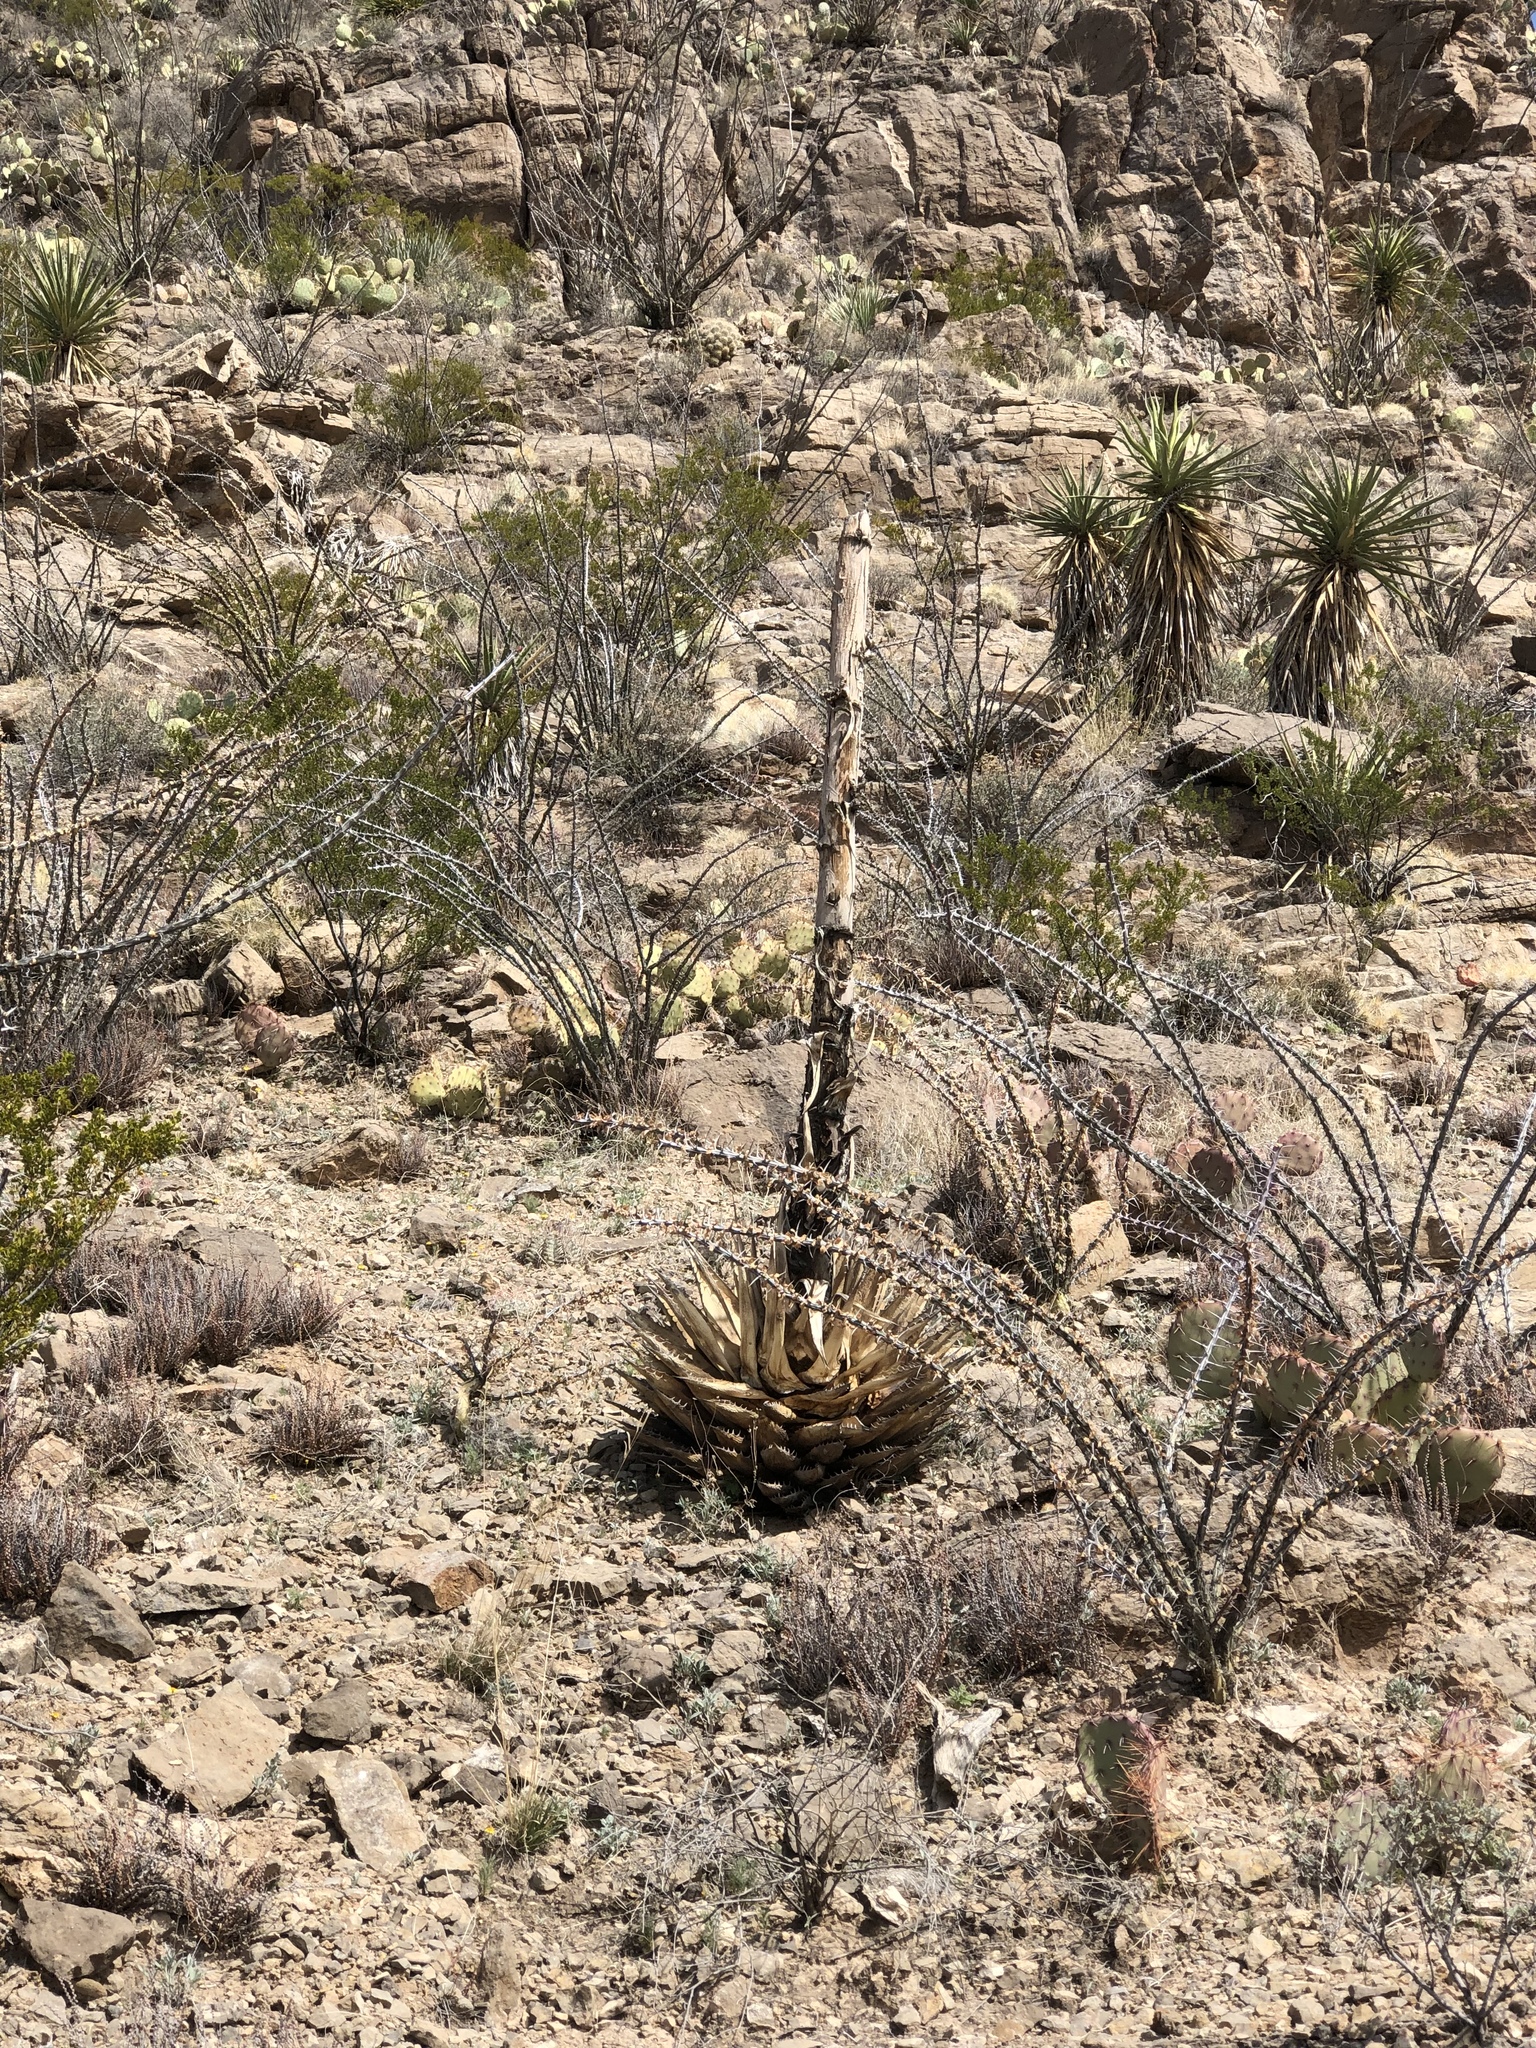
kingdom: Plantae
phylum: Tracheophyta
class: Liliopsida
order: Asparagales
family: Asparagaceae
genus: Agave
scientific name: Agave parryi
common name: Parry's agave
